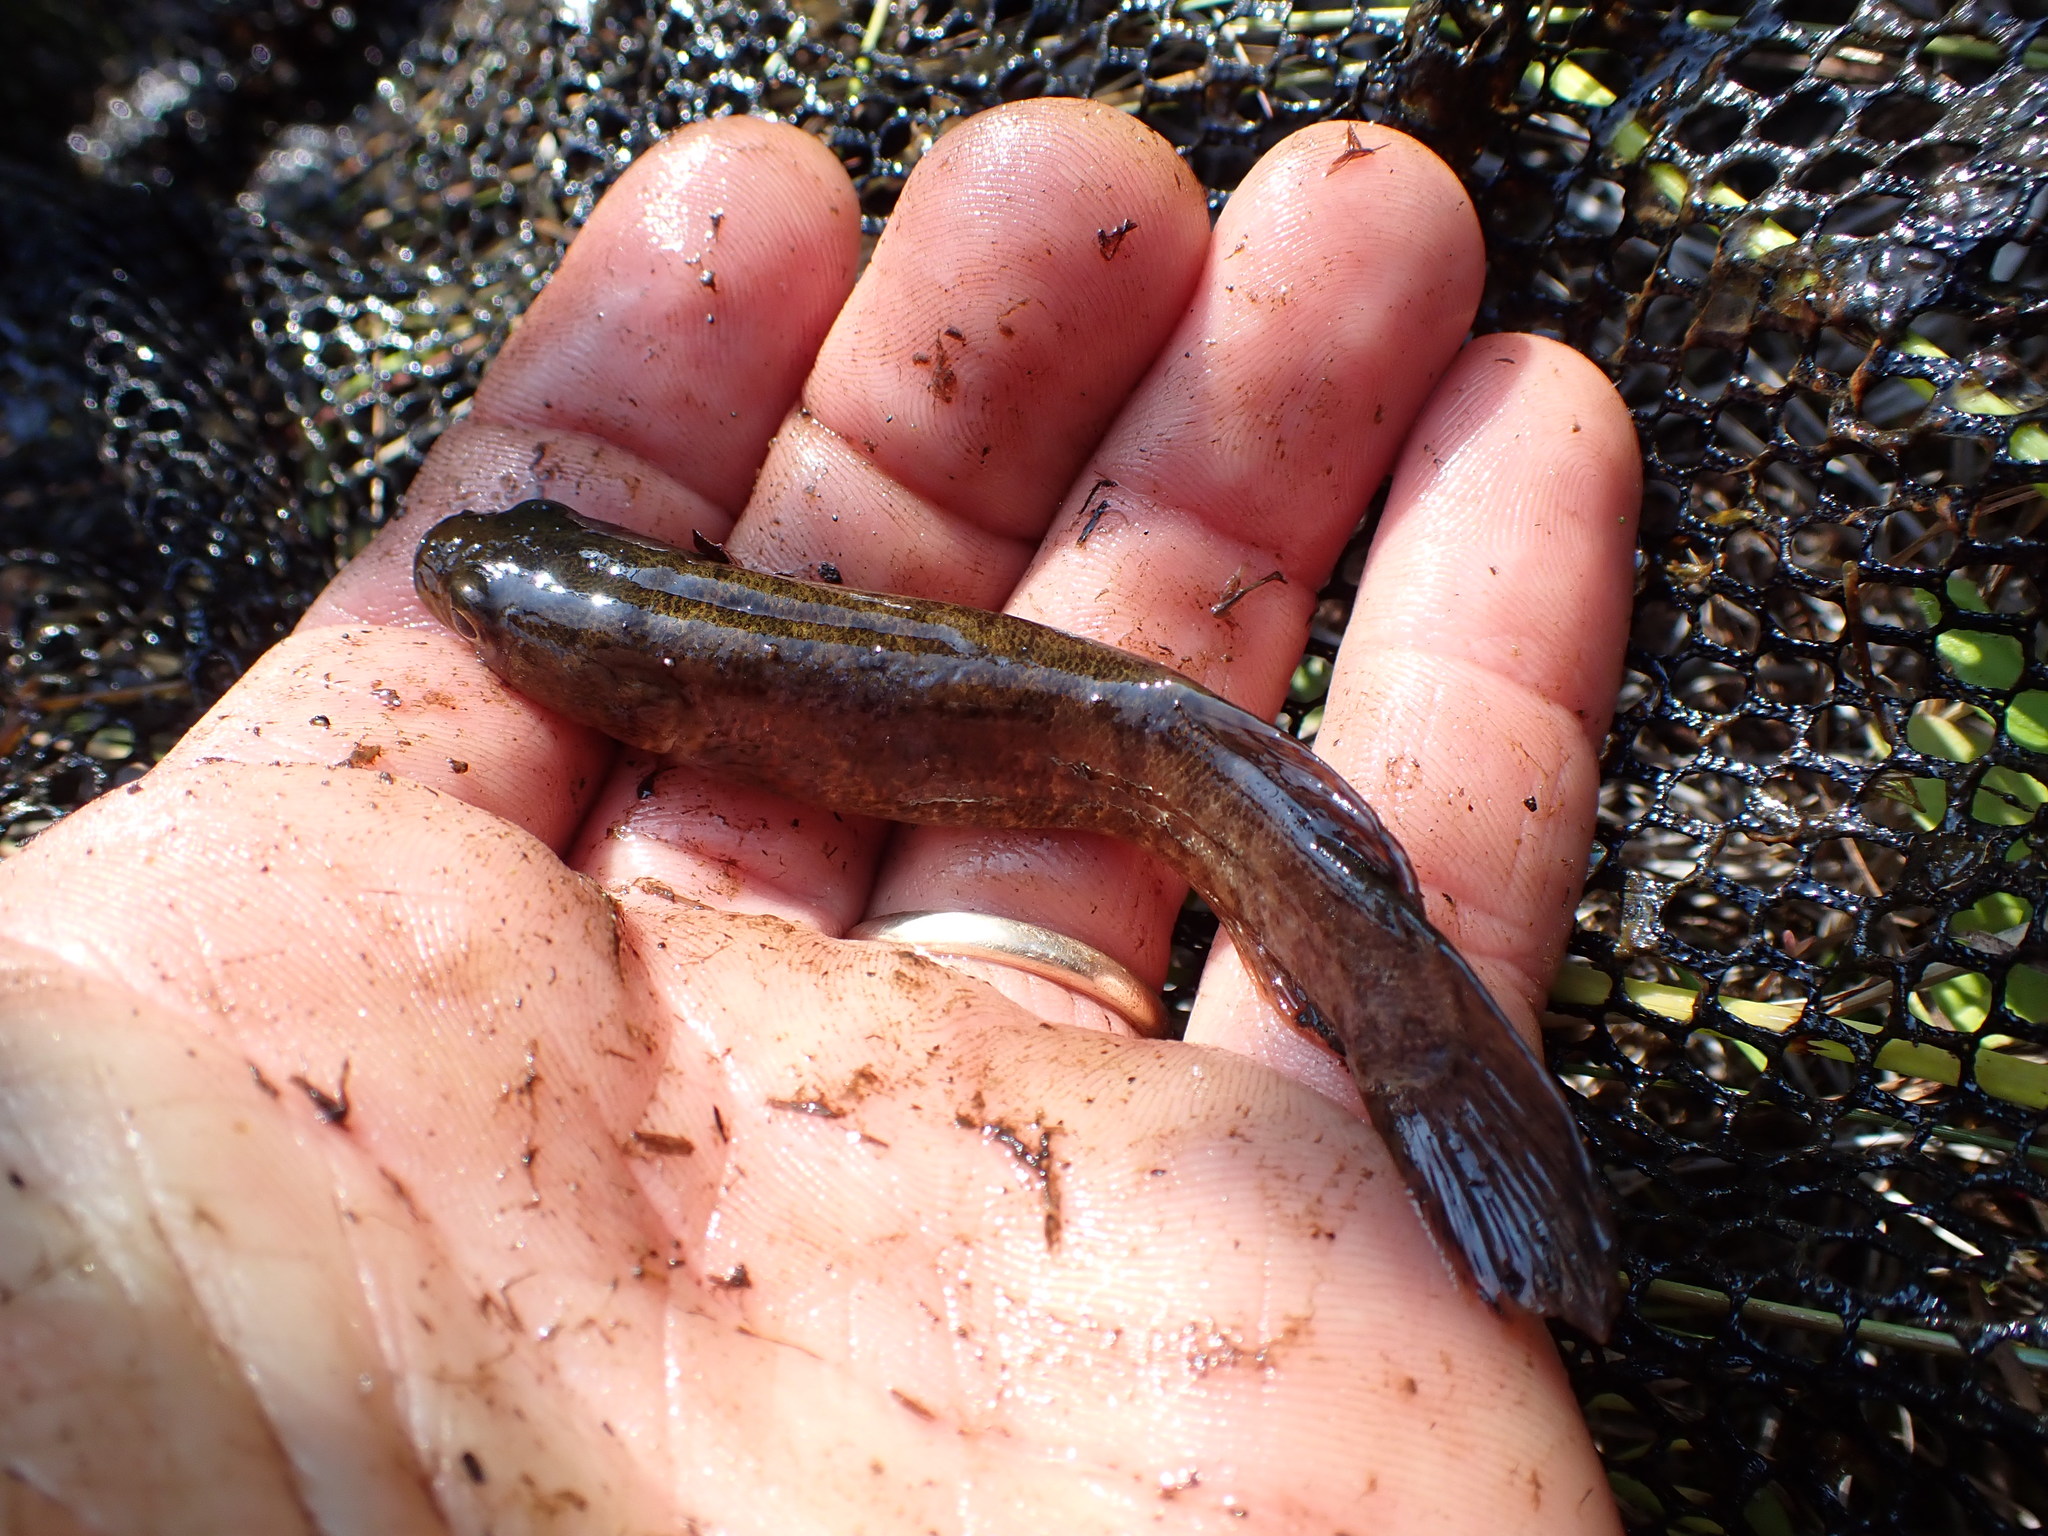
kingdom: Animalia
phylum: Chordata
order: Esociformes
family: Umbridae
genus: Dallia
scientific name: Dallia pectoralis
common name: Alaska blackfish
